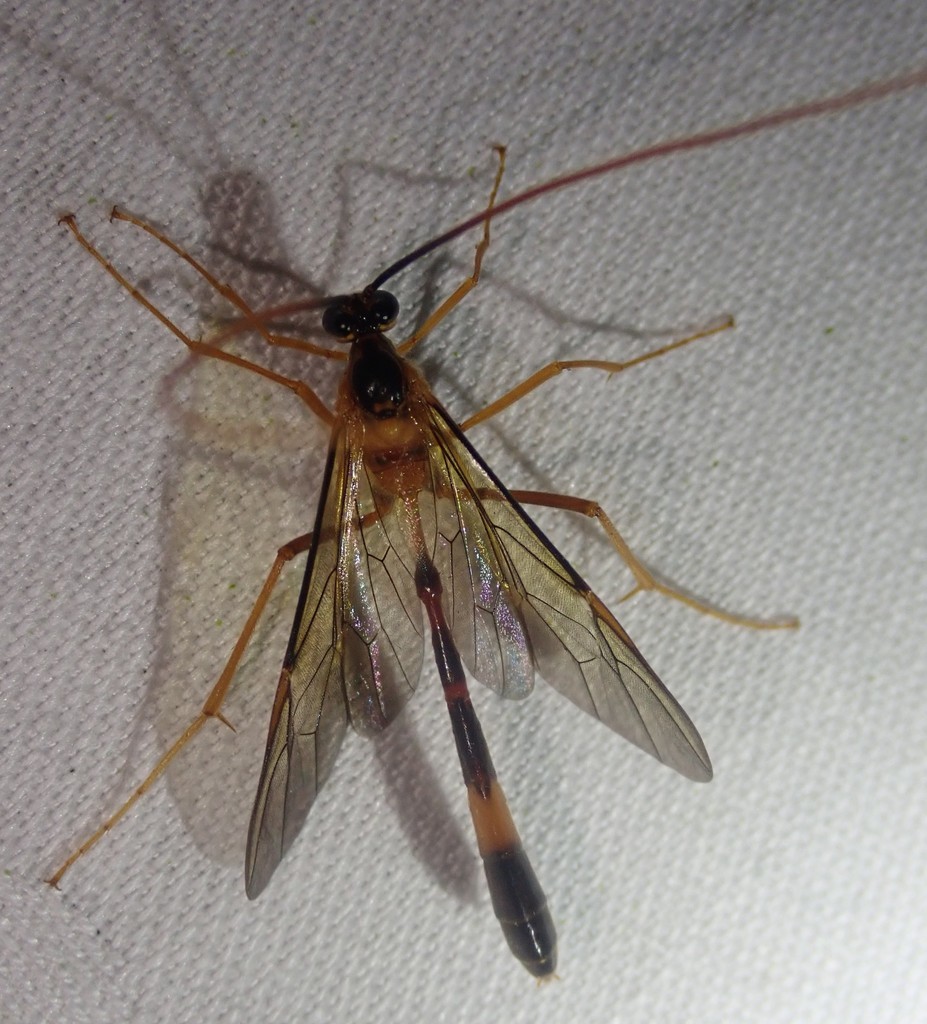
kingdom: Animalia
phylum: Arthropoda
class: Insecta
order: Hymenoptera
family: Ichneumonidae
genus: Stauropoctonus
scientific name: Stauropoctonus bombycivorus
